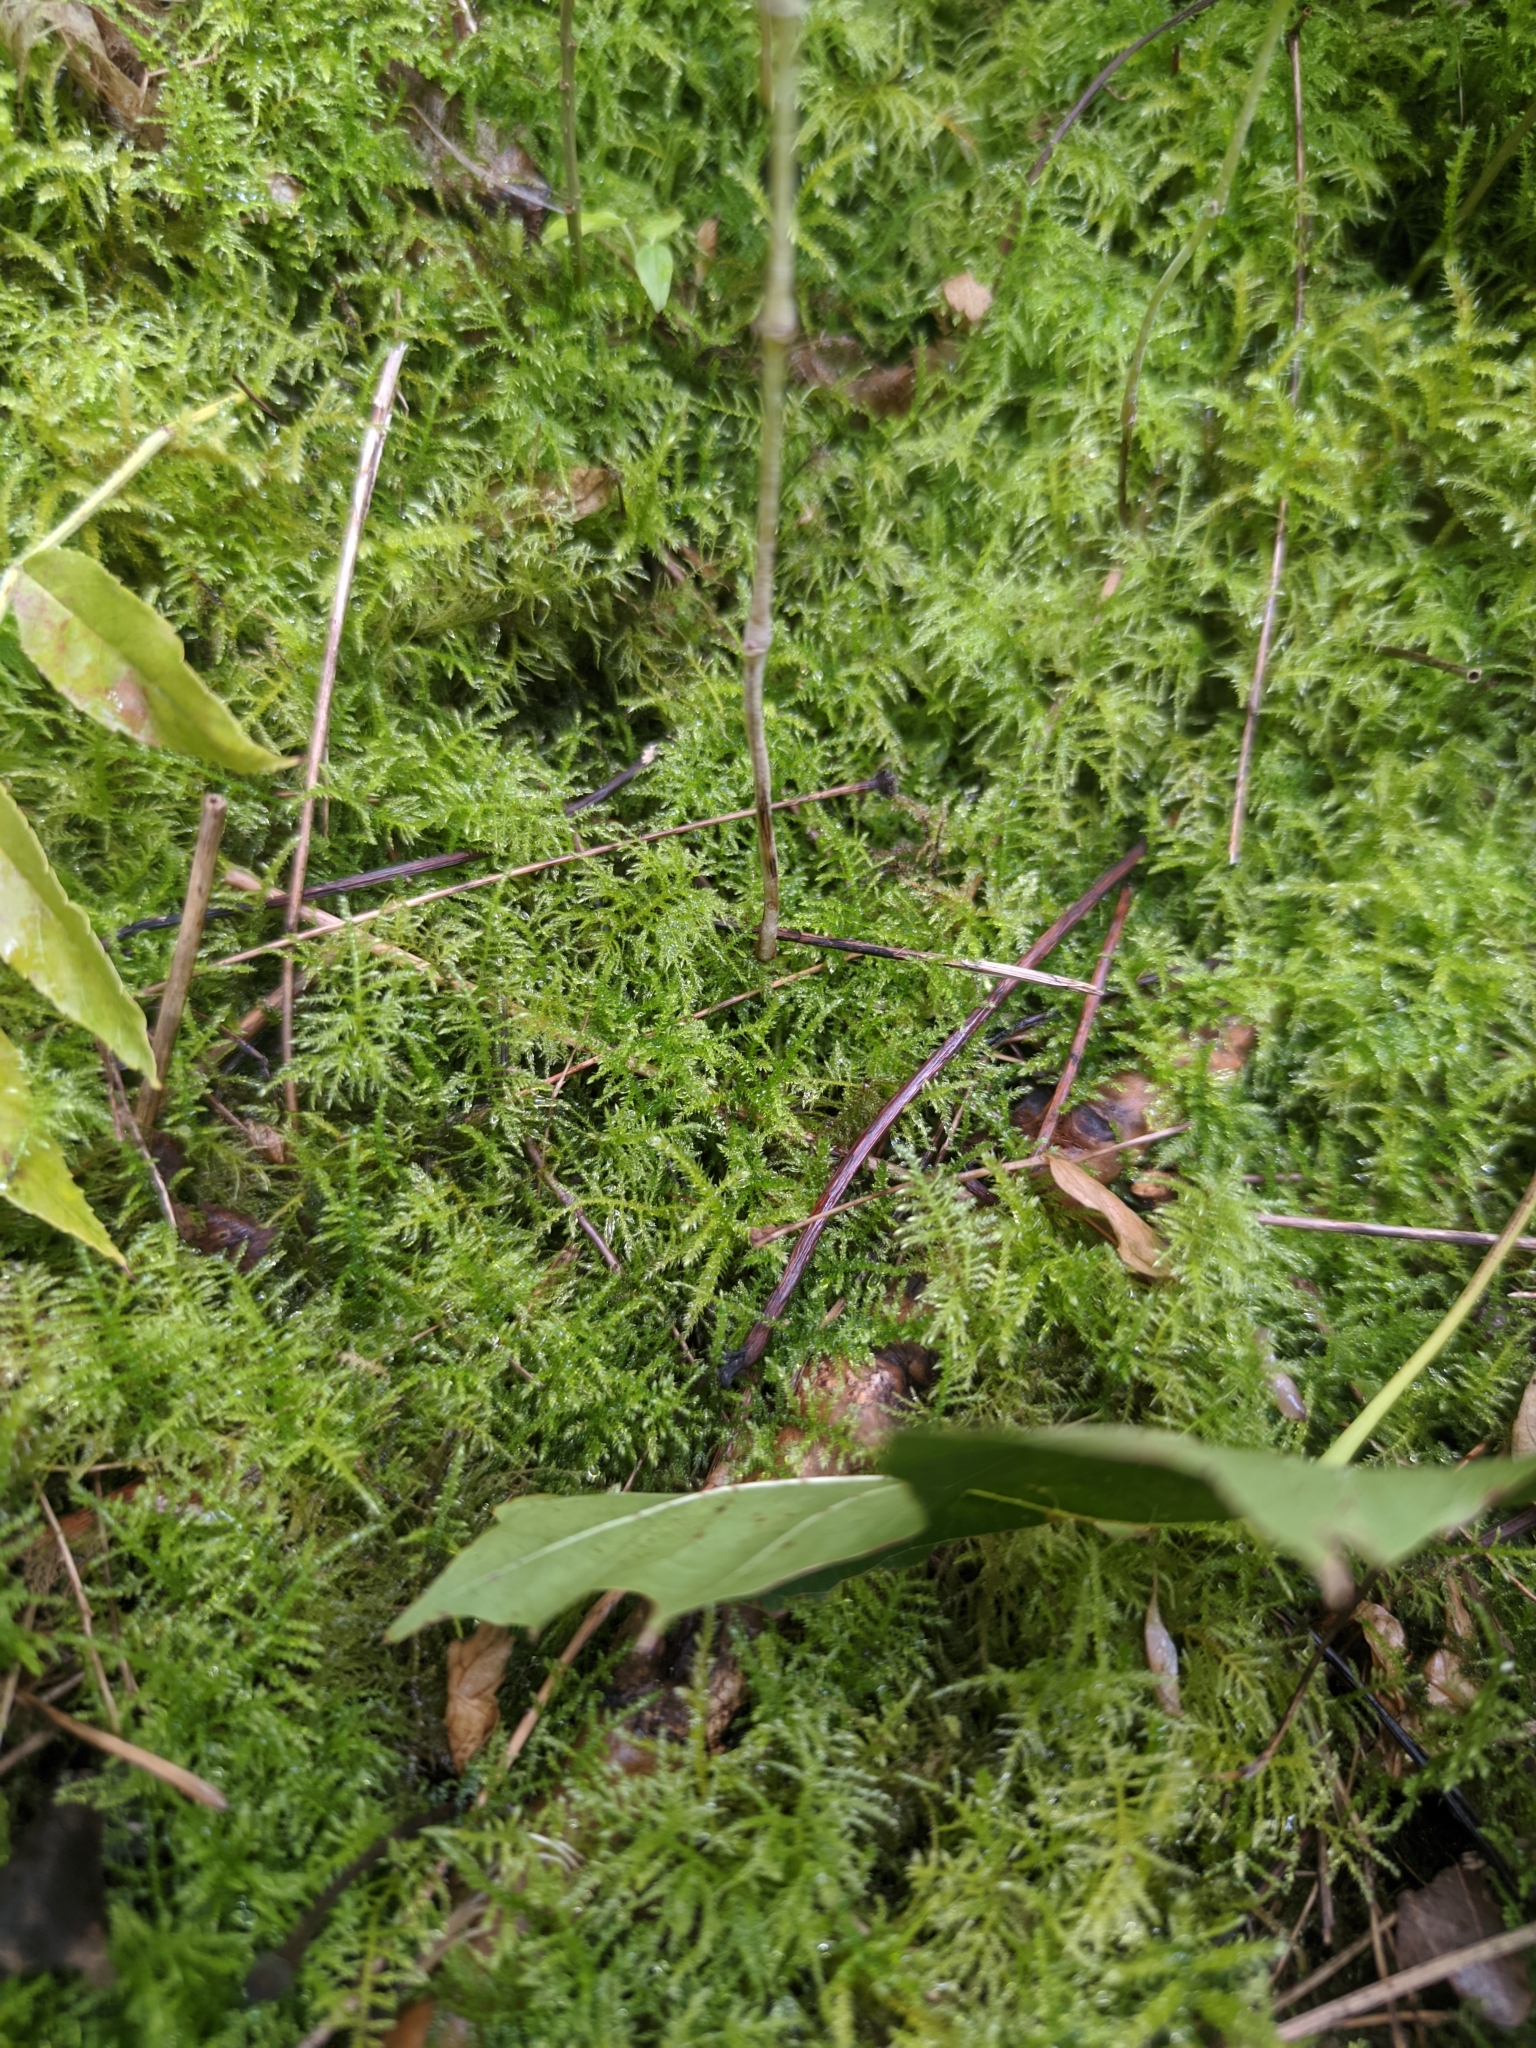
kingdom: Plantae
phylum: Bryophyta
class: Bryopsida
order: Hypnales
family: Brachytheciaceae
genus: Kindbergia
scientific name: Kindbergia praelonga
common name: Slender beaked moss
